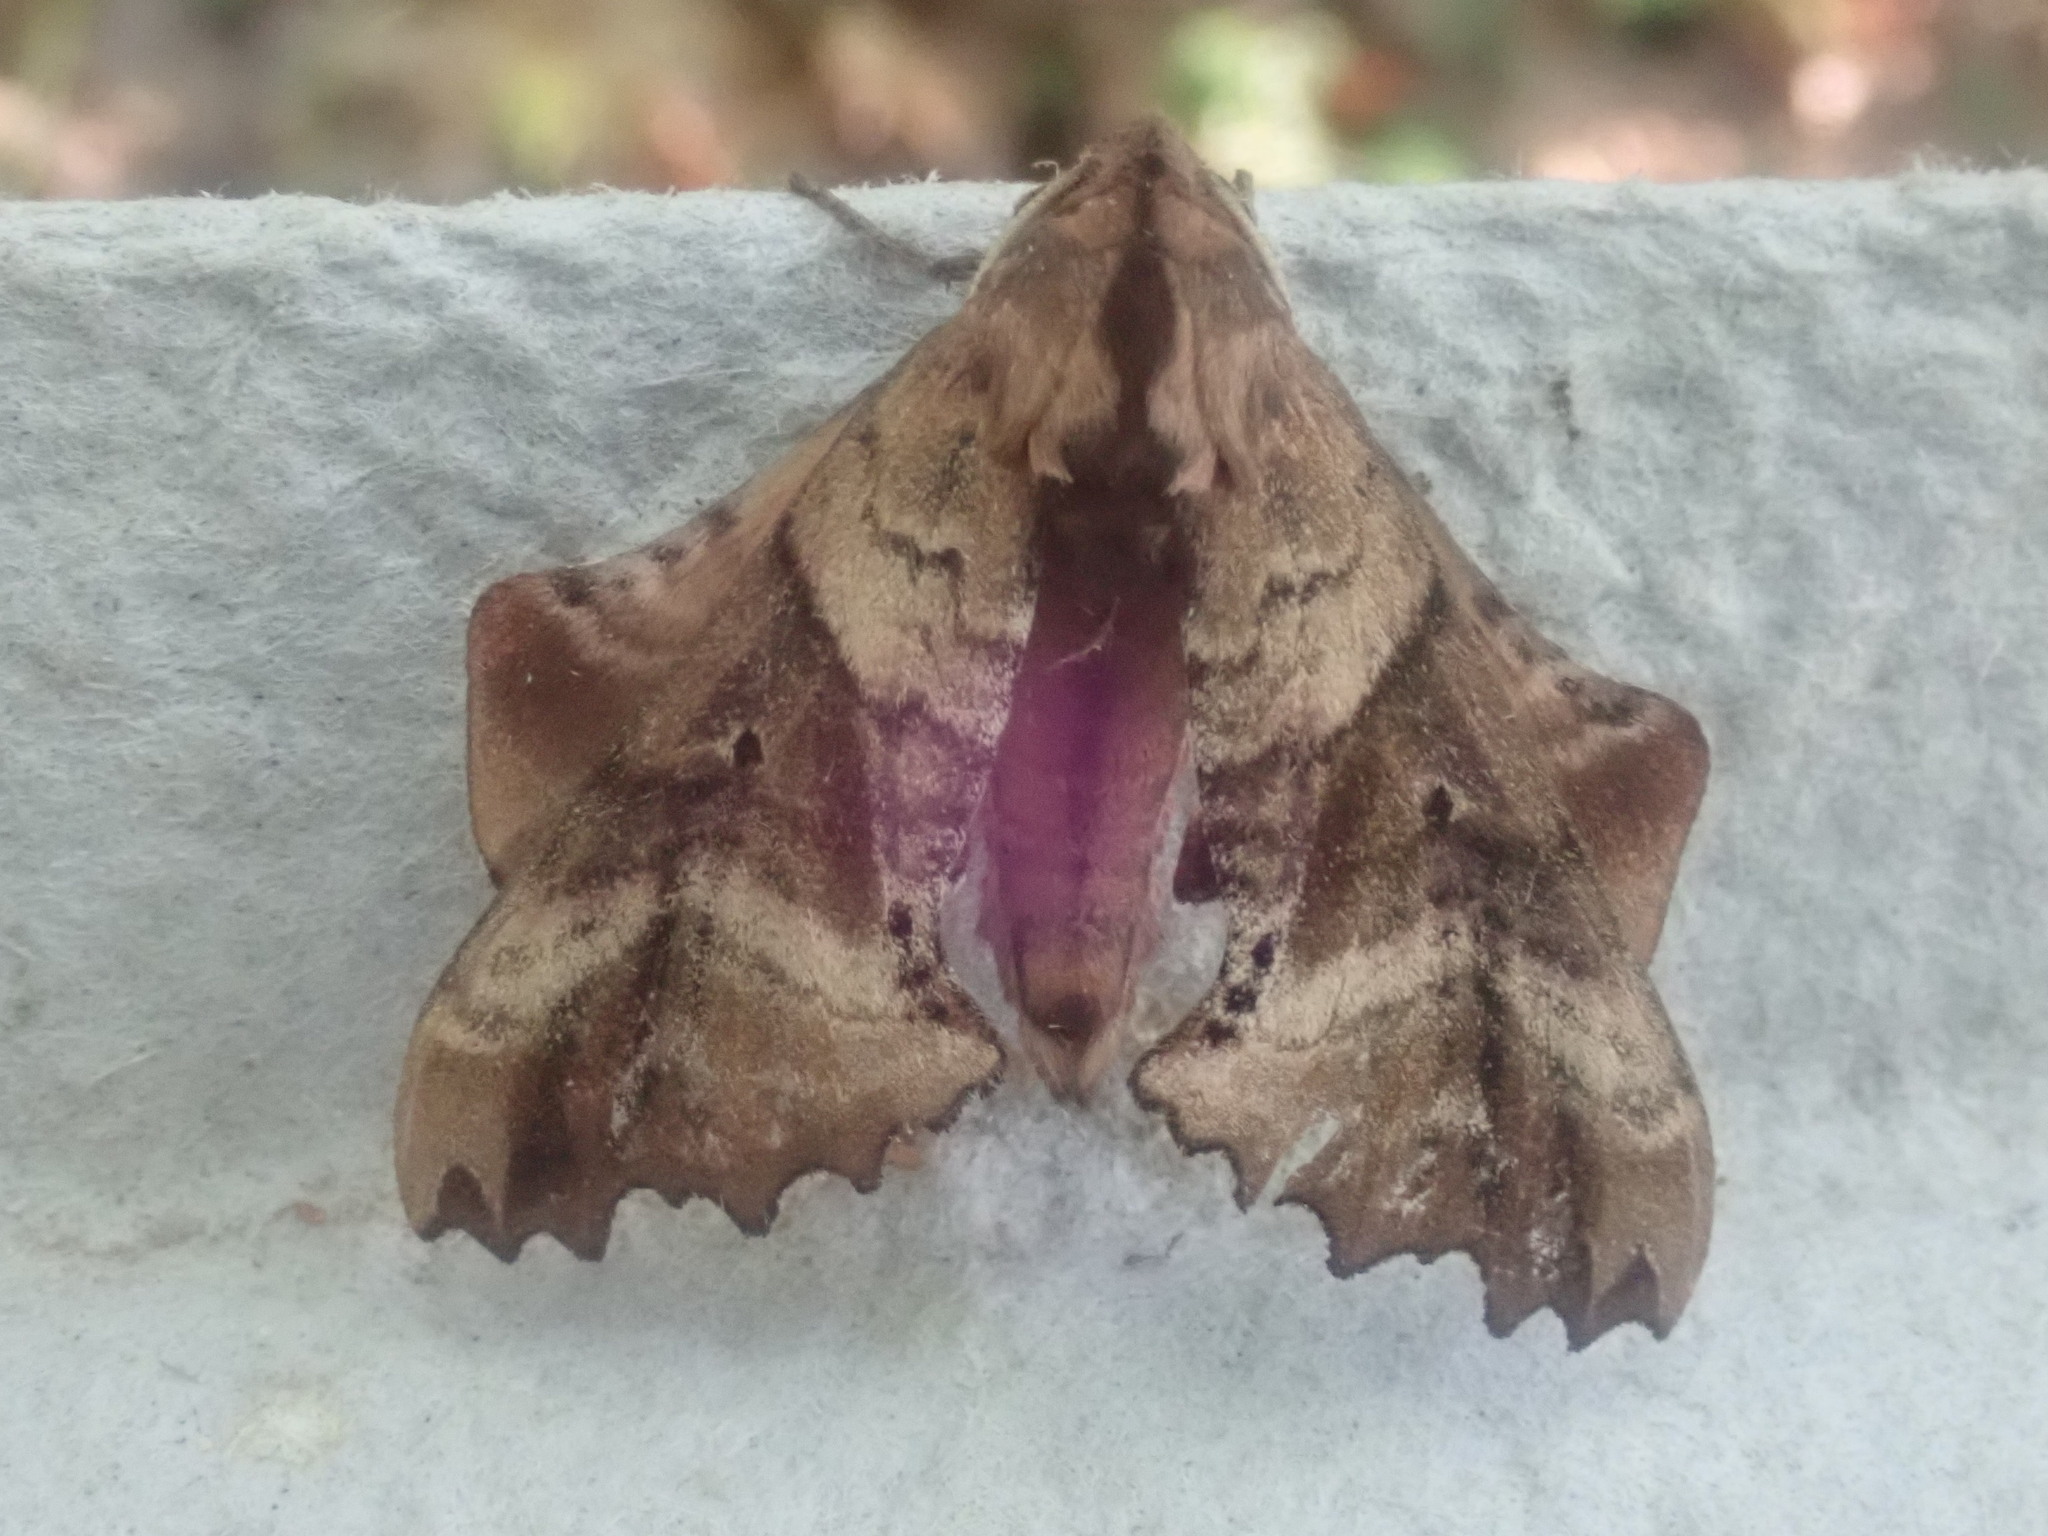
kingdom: Animalia
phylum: Arthropoda
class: Insecta
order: Lepidoptera
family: Sphingidae
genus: Paonias
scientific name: Paonias excaecata
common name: Blind-eyed sphinx
